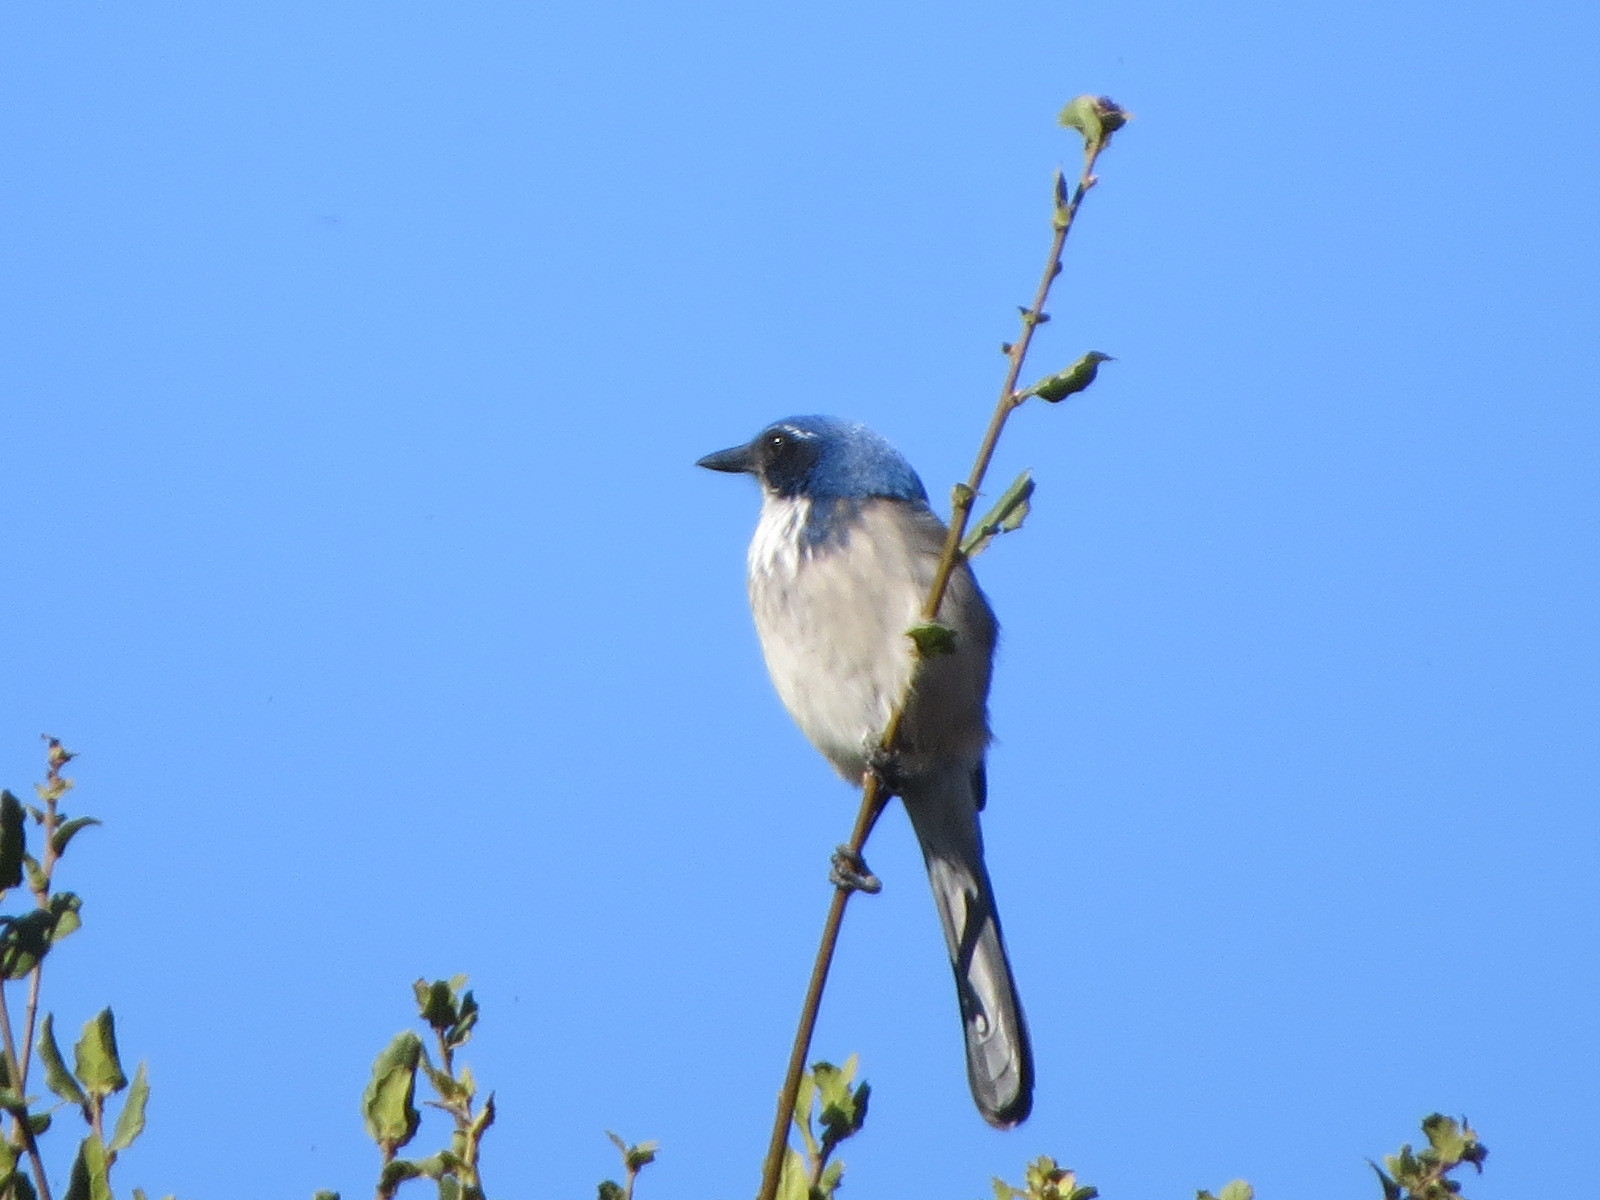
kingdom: Animalia
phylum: Chordata
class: Aves
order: Passeriformes
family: Corvidae
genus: Aphelocoma
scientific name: Aphelocoma californica
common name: California scrub-jay
